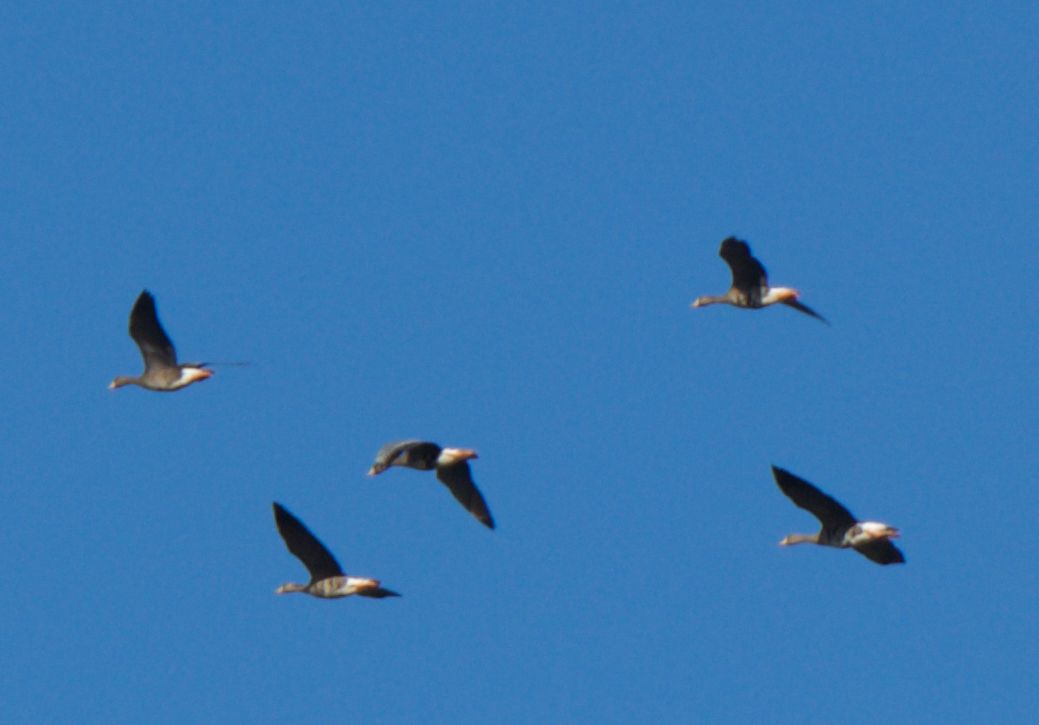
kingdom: Animalia
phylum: Chordata
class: Aves
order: Anseriformes
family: Anatidae
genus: Anser
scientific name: Anser albifrons
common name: Greater white-fronted goose
